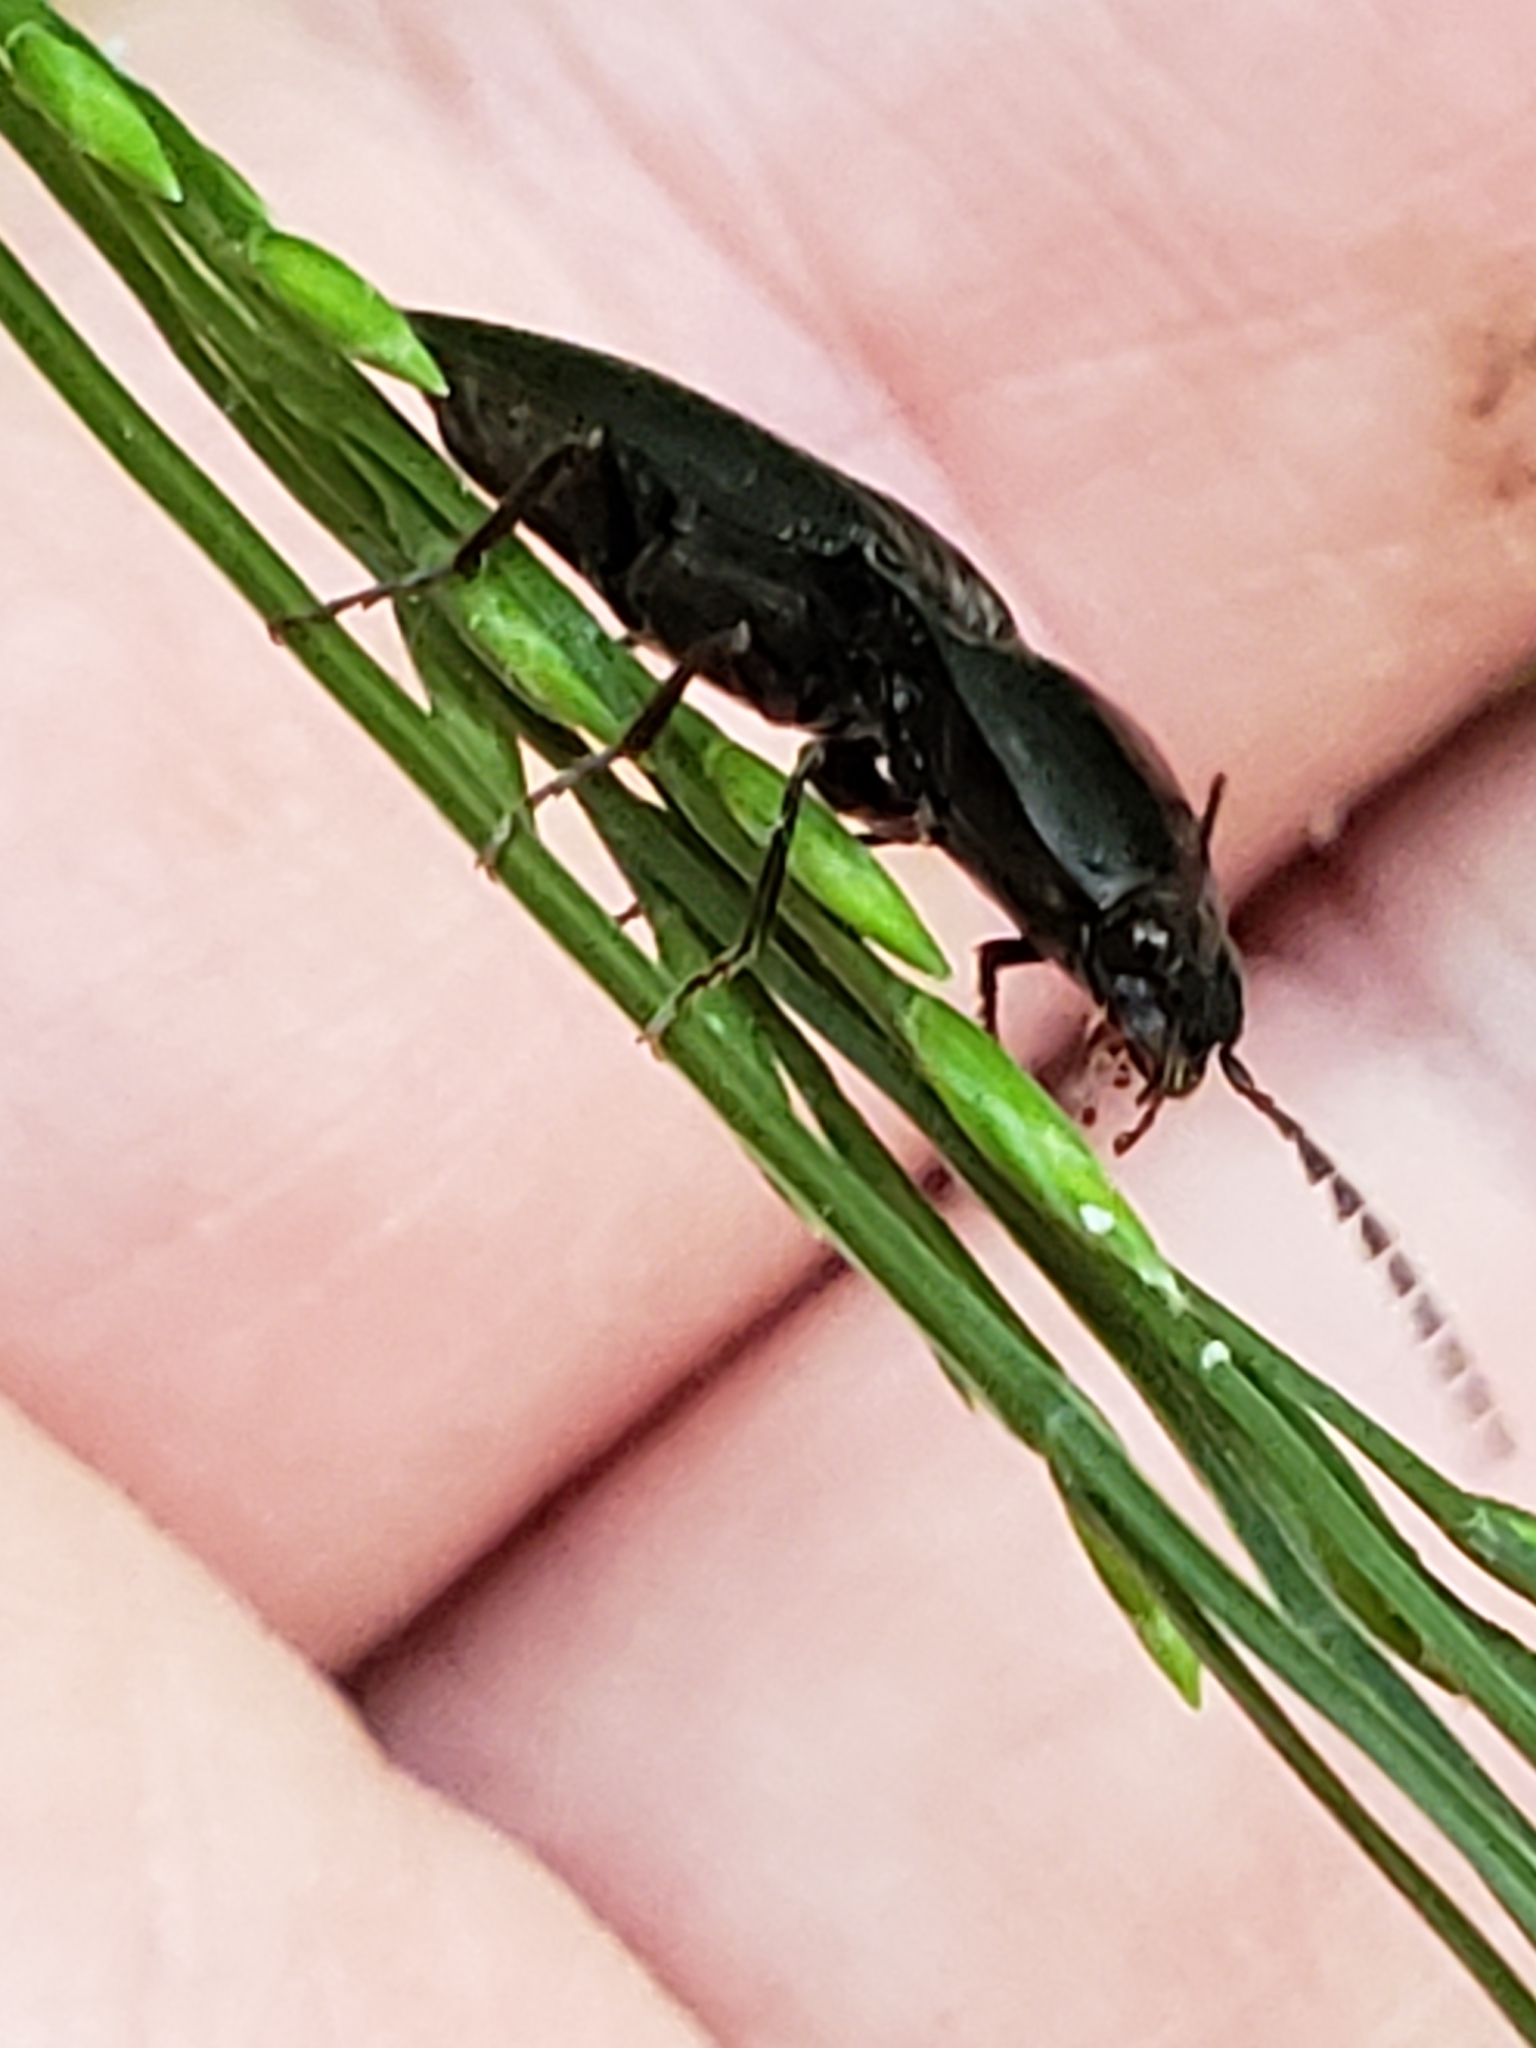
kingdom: Animalia
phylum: Arthropoda
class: Insecta
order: Coleoptera
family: Elateridae
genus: Neopristilophus
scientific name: Neopristilophus
